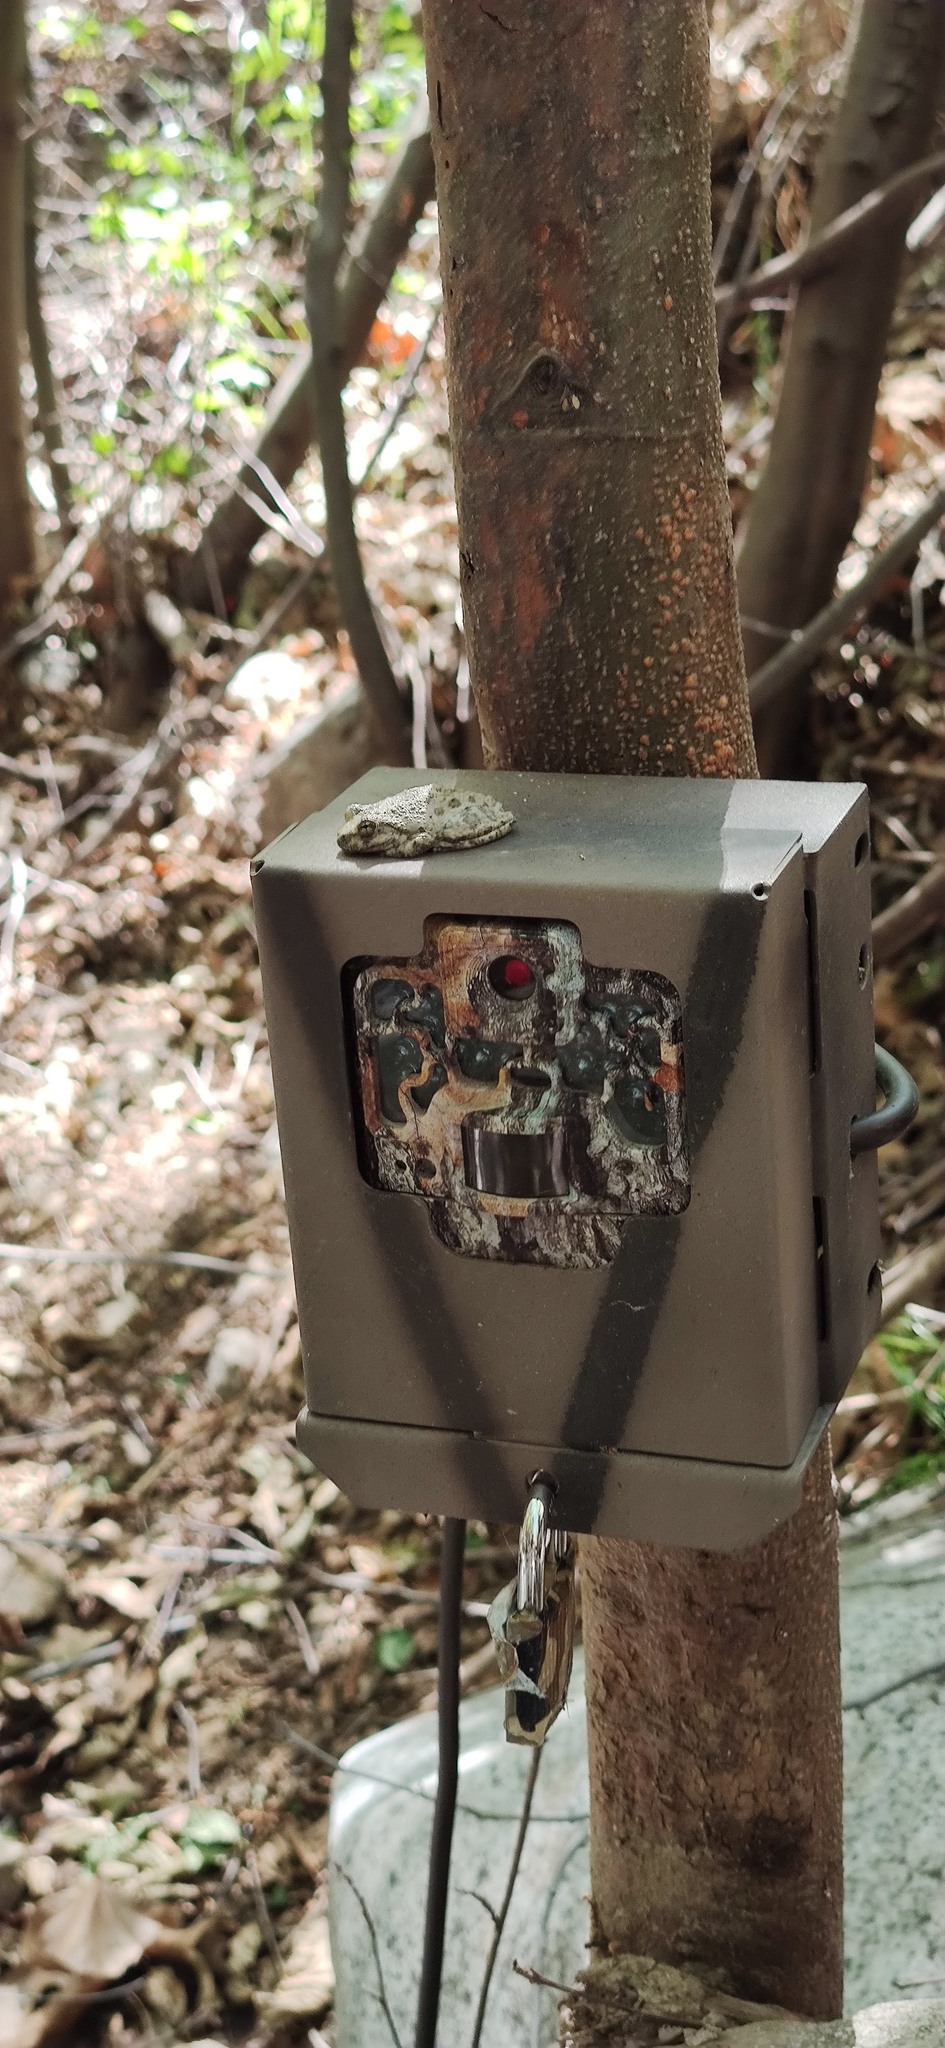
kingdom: Animalia
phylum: Chordata
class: Amphibia
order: Anura
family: Hylidae
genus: Pseudacris
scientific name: Pseudacris cadaverina
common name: California chorus frog
